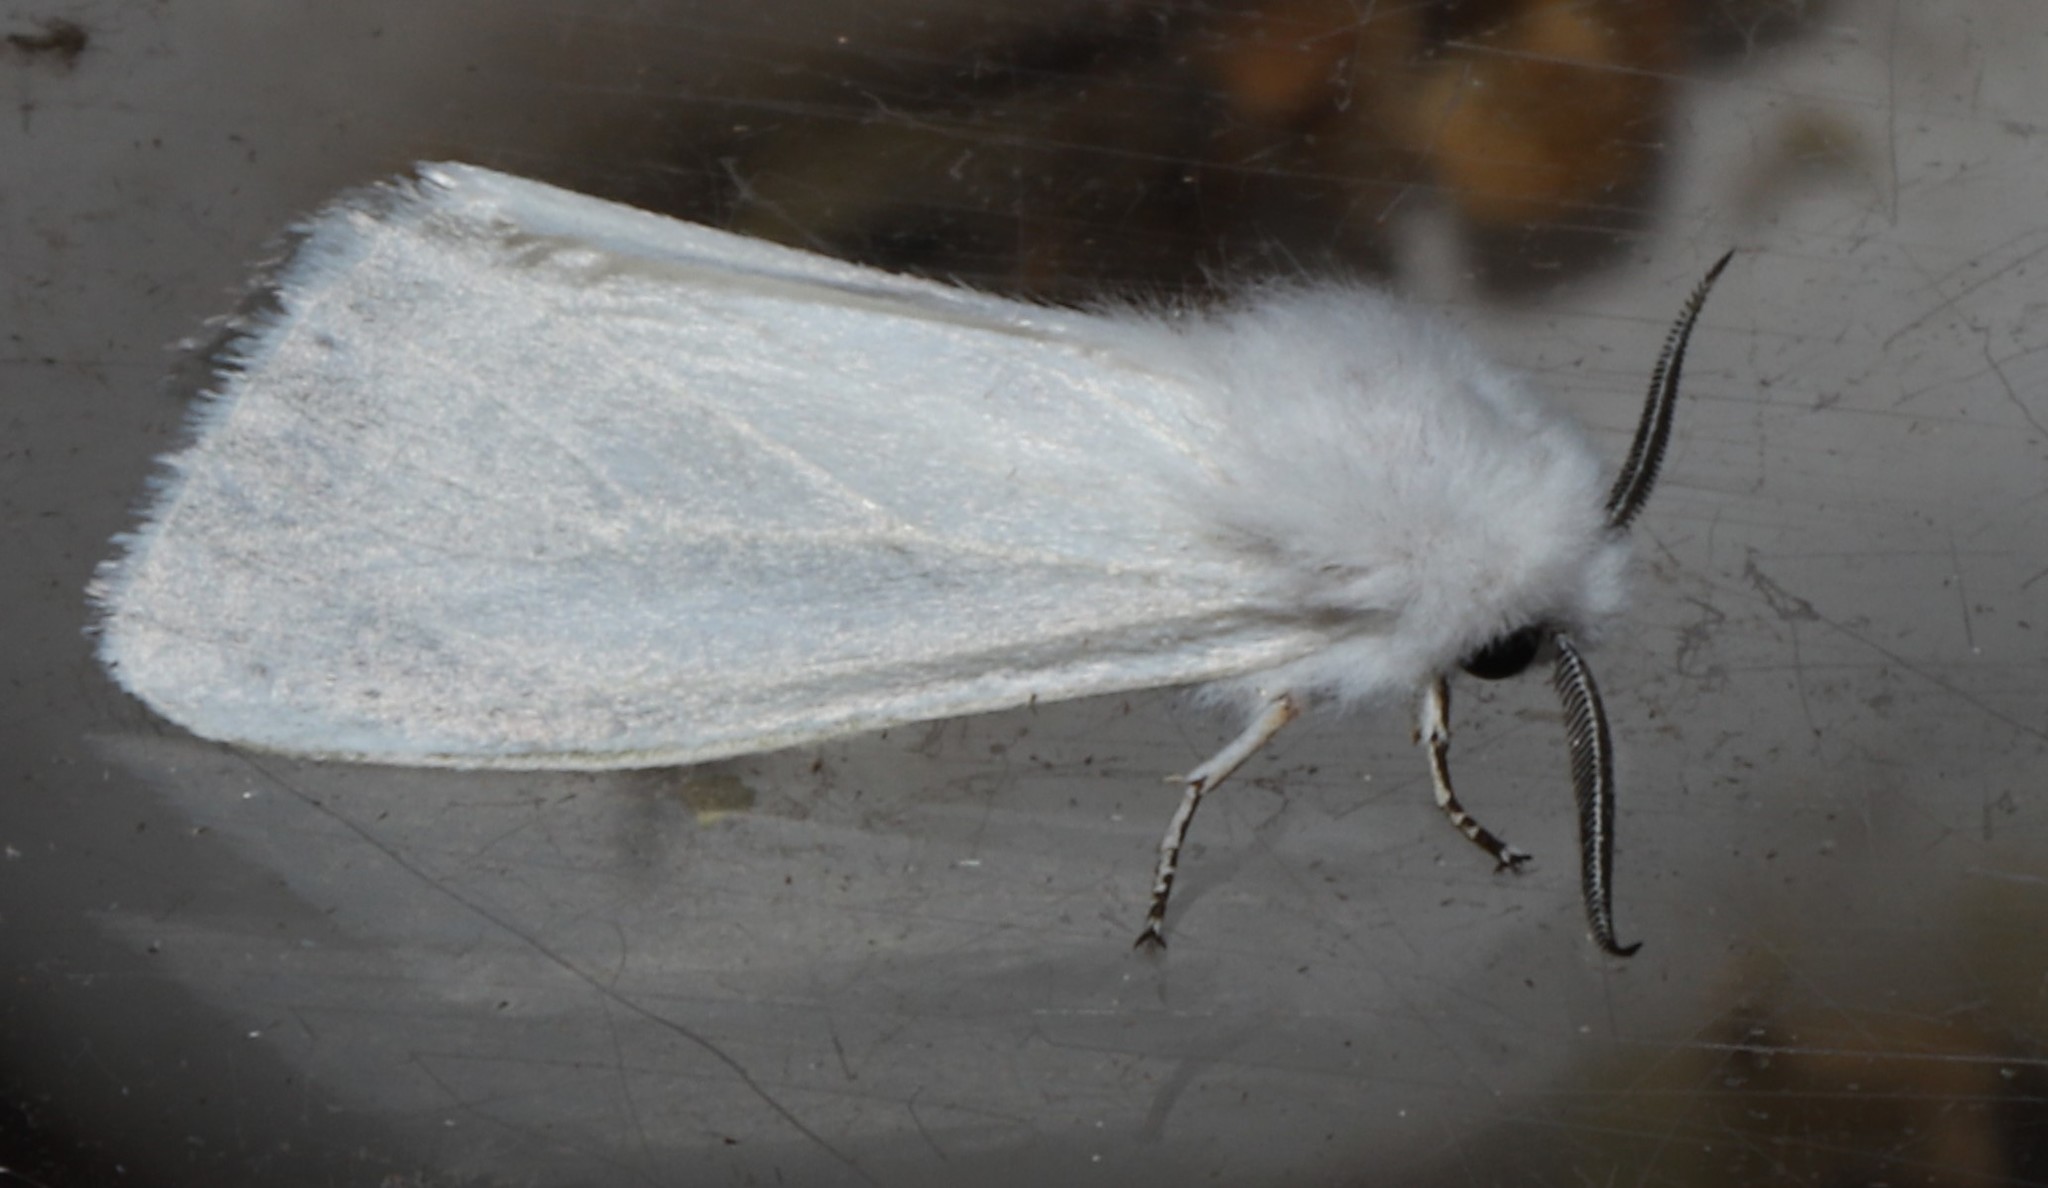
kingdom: Animalia
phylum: Arthropoda
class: Insecta
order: Lepidoptera
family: Erebidae
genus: Hyphantria
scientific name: Hyphantria cunea
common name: American white moth
